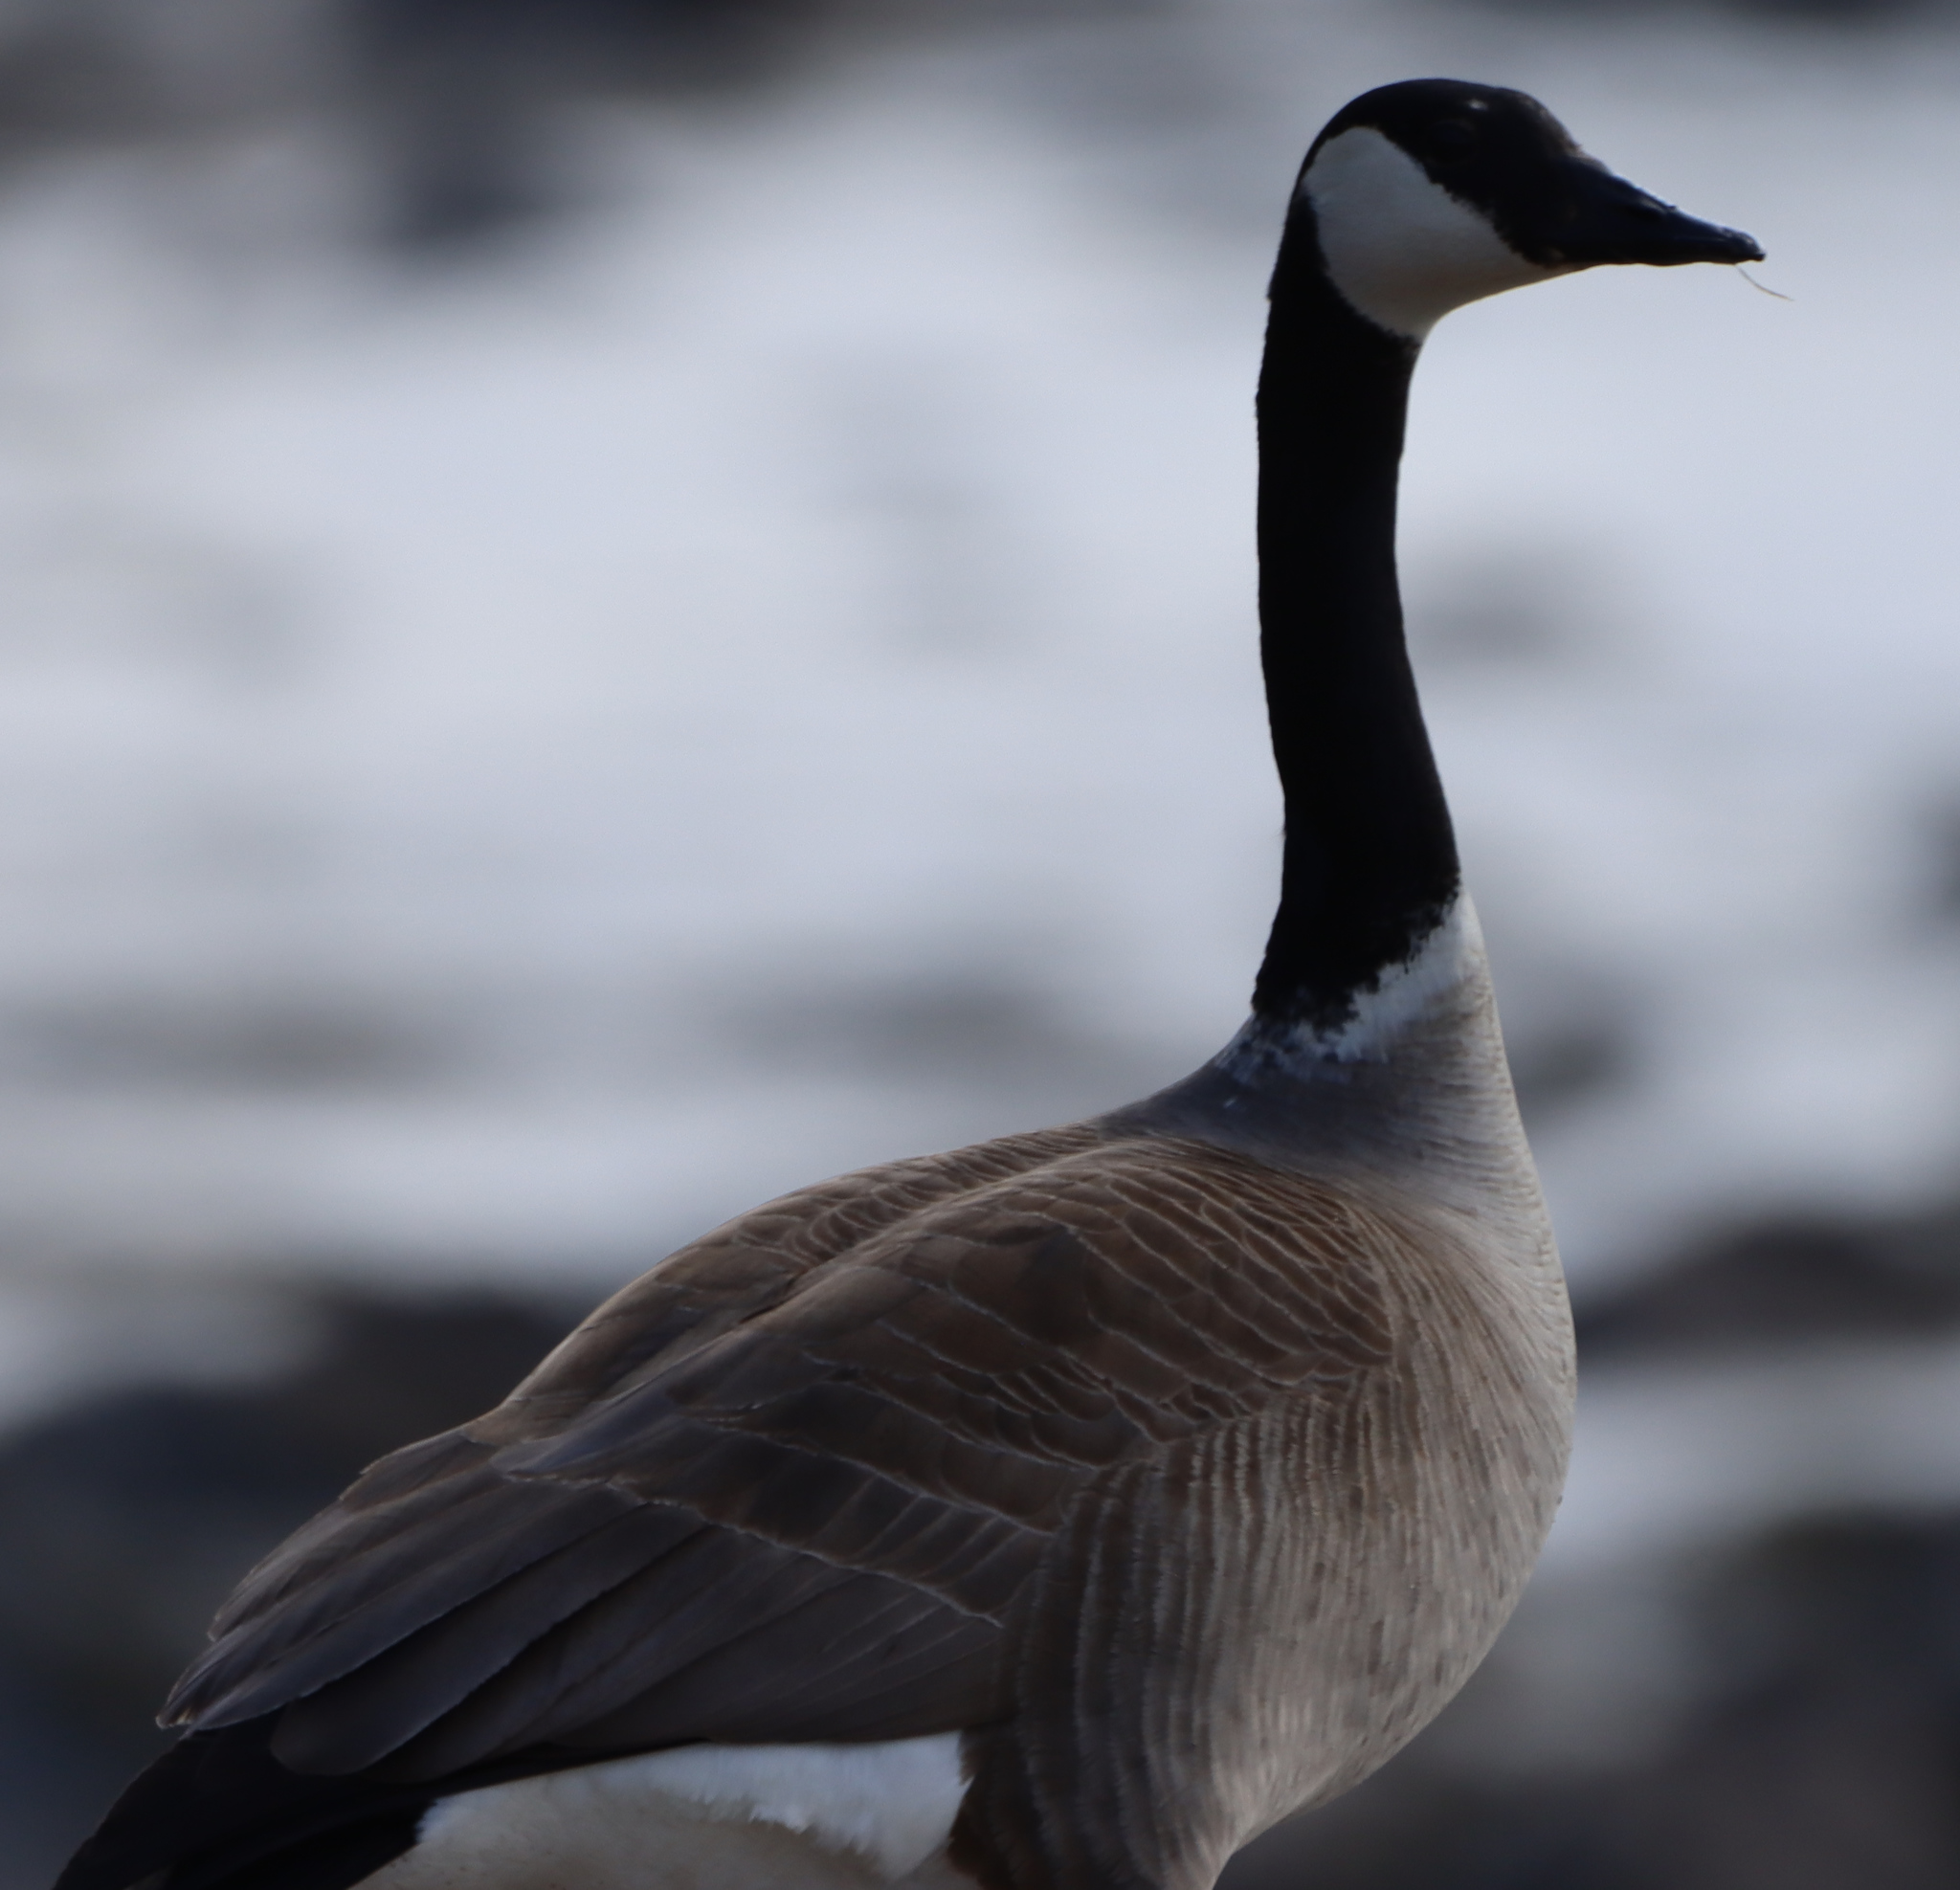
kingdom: Animalia
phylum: Chordata
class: Aves
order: Anseriformes
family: Anatidae
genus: Branta
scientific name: Branta canadensis
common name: Canada goose
